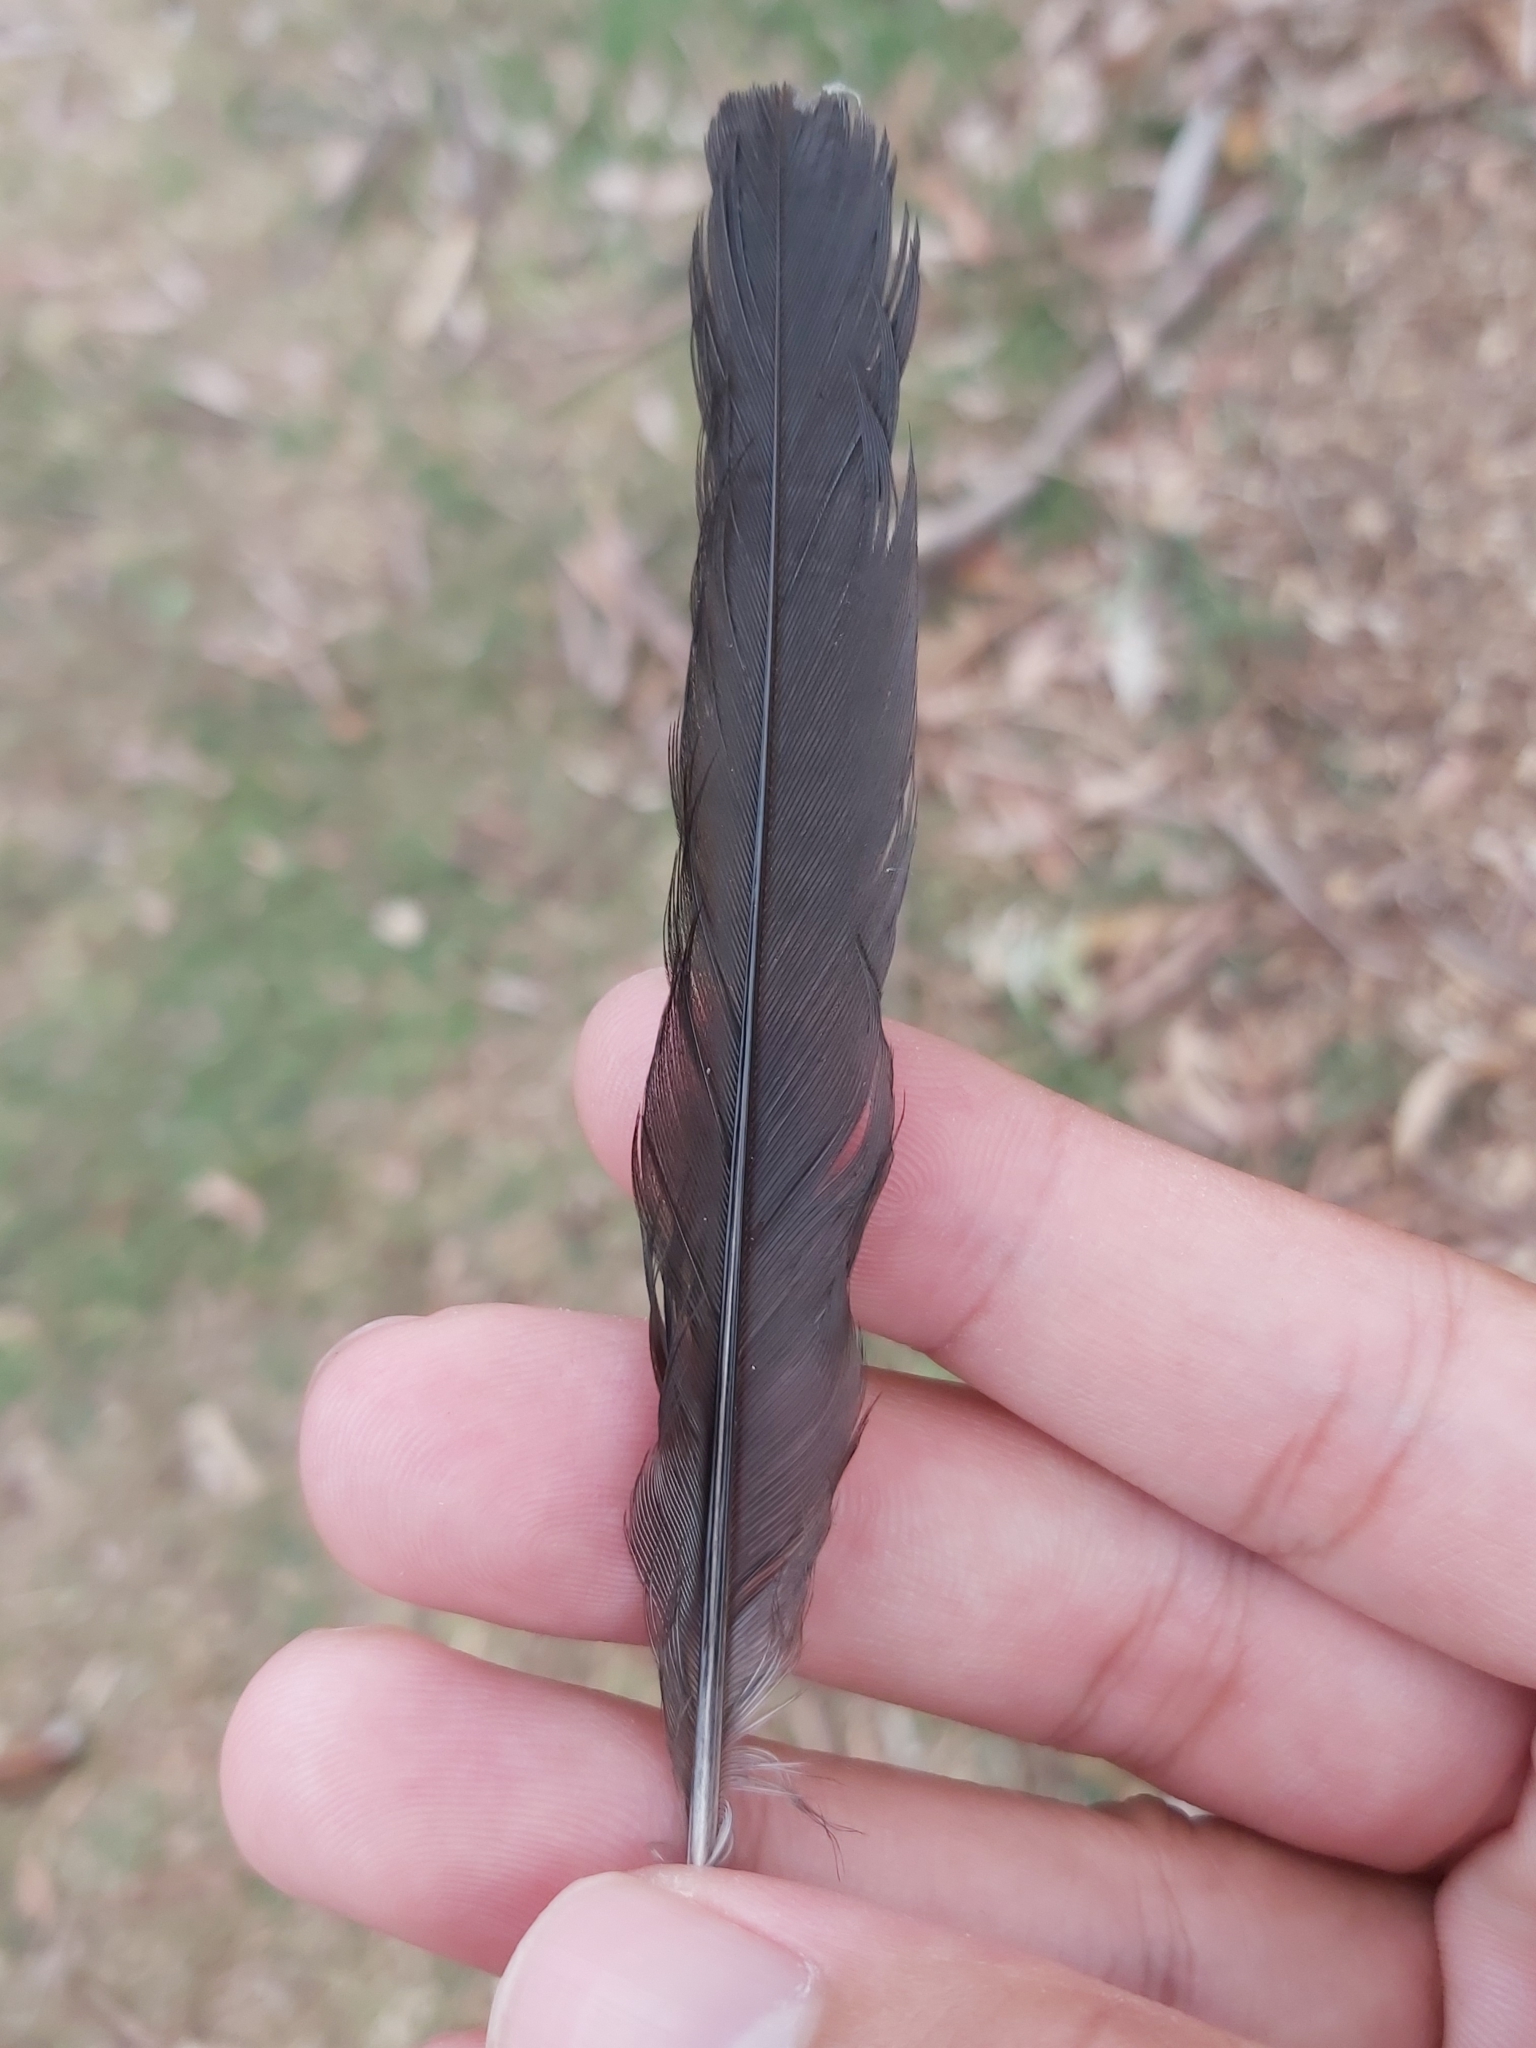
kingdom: Animalia
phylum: Chordata
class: Aves
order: Passeriformes
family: Cracticidae
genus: Cracticus
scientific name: Cracticus torquatus
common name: Grey butcherbird
